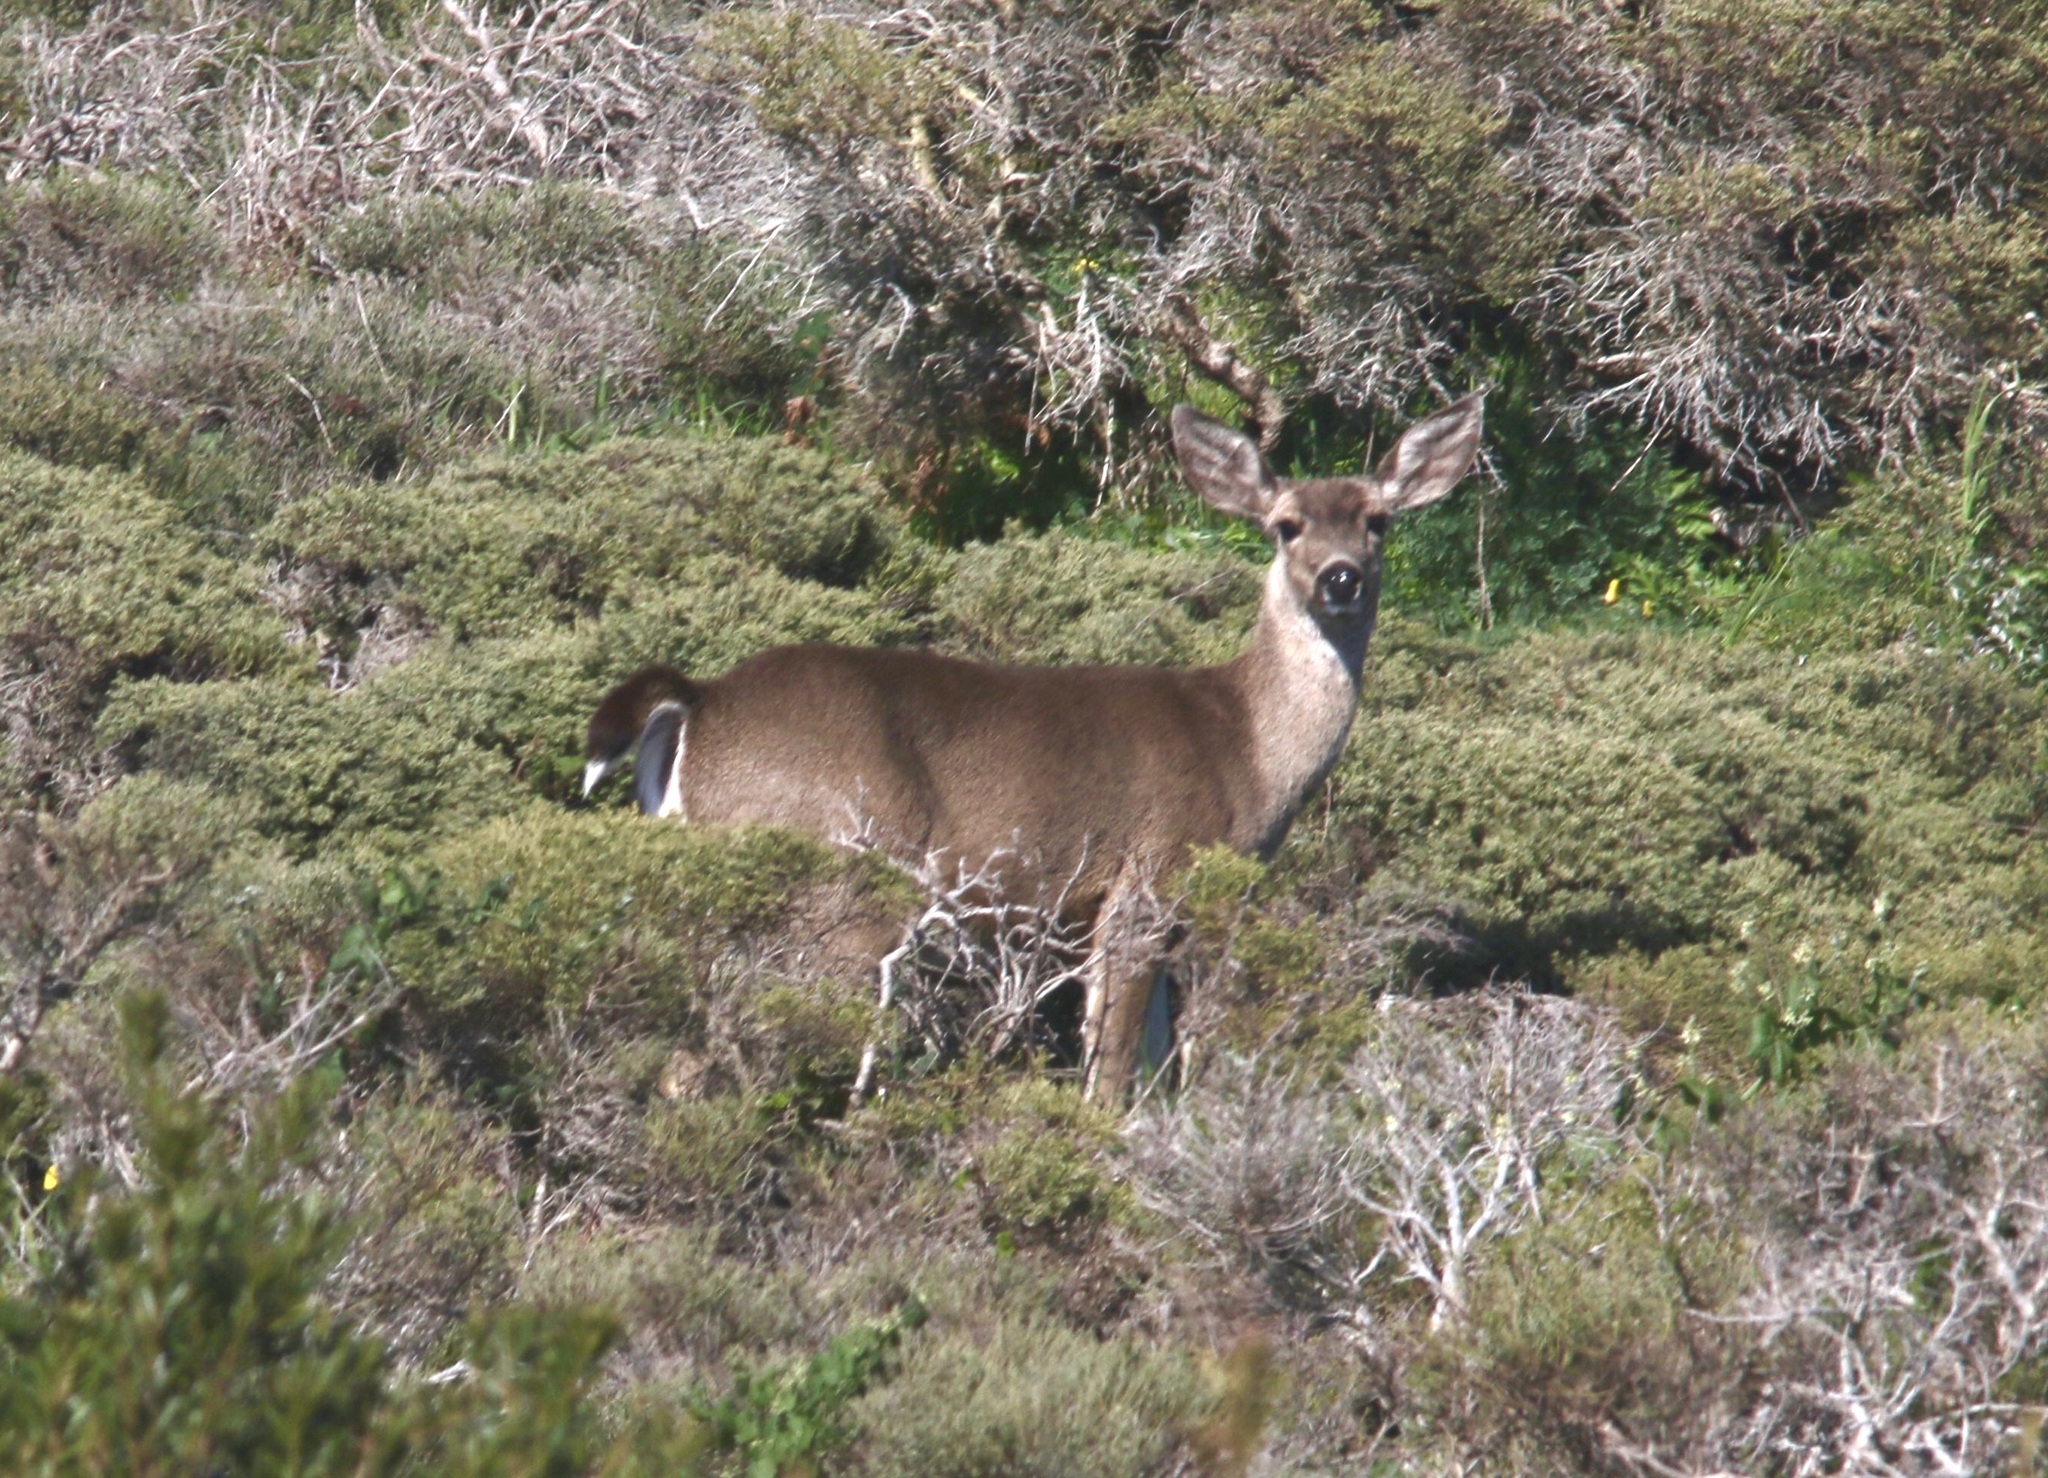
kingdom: Animalia
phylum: Chordata
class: Mammalia
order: Artiodactyla
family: Cervidae
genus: Odocoileus
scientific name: Odocoileus hemionus
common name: Mule deer
